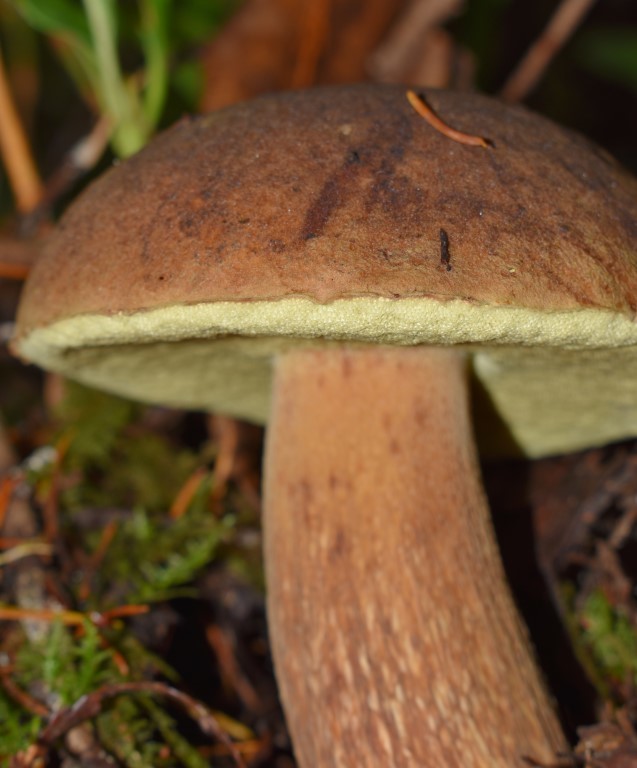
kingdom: Fungi
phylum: Basidiomycota
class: Agaricomycetes
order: Boletales
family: Boletaceae
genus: Boletus
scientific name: Boletus fibrillosus
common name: Fib king
